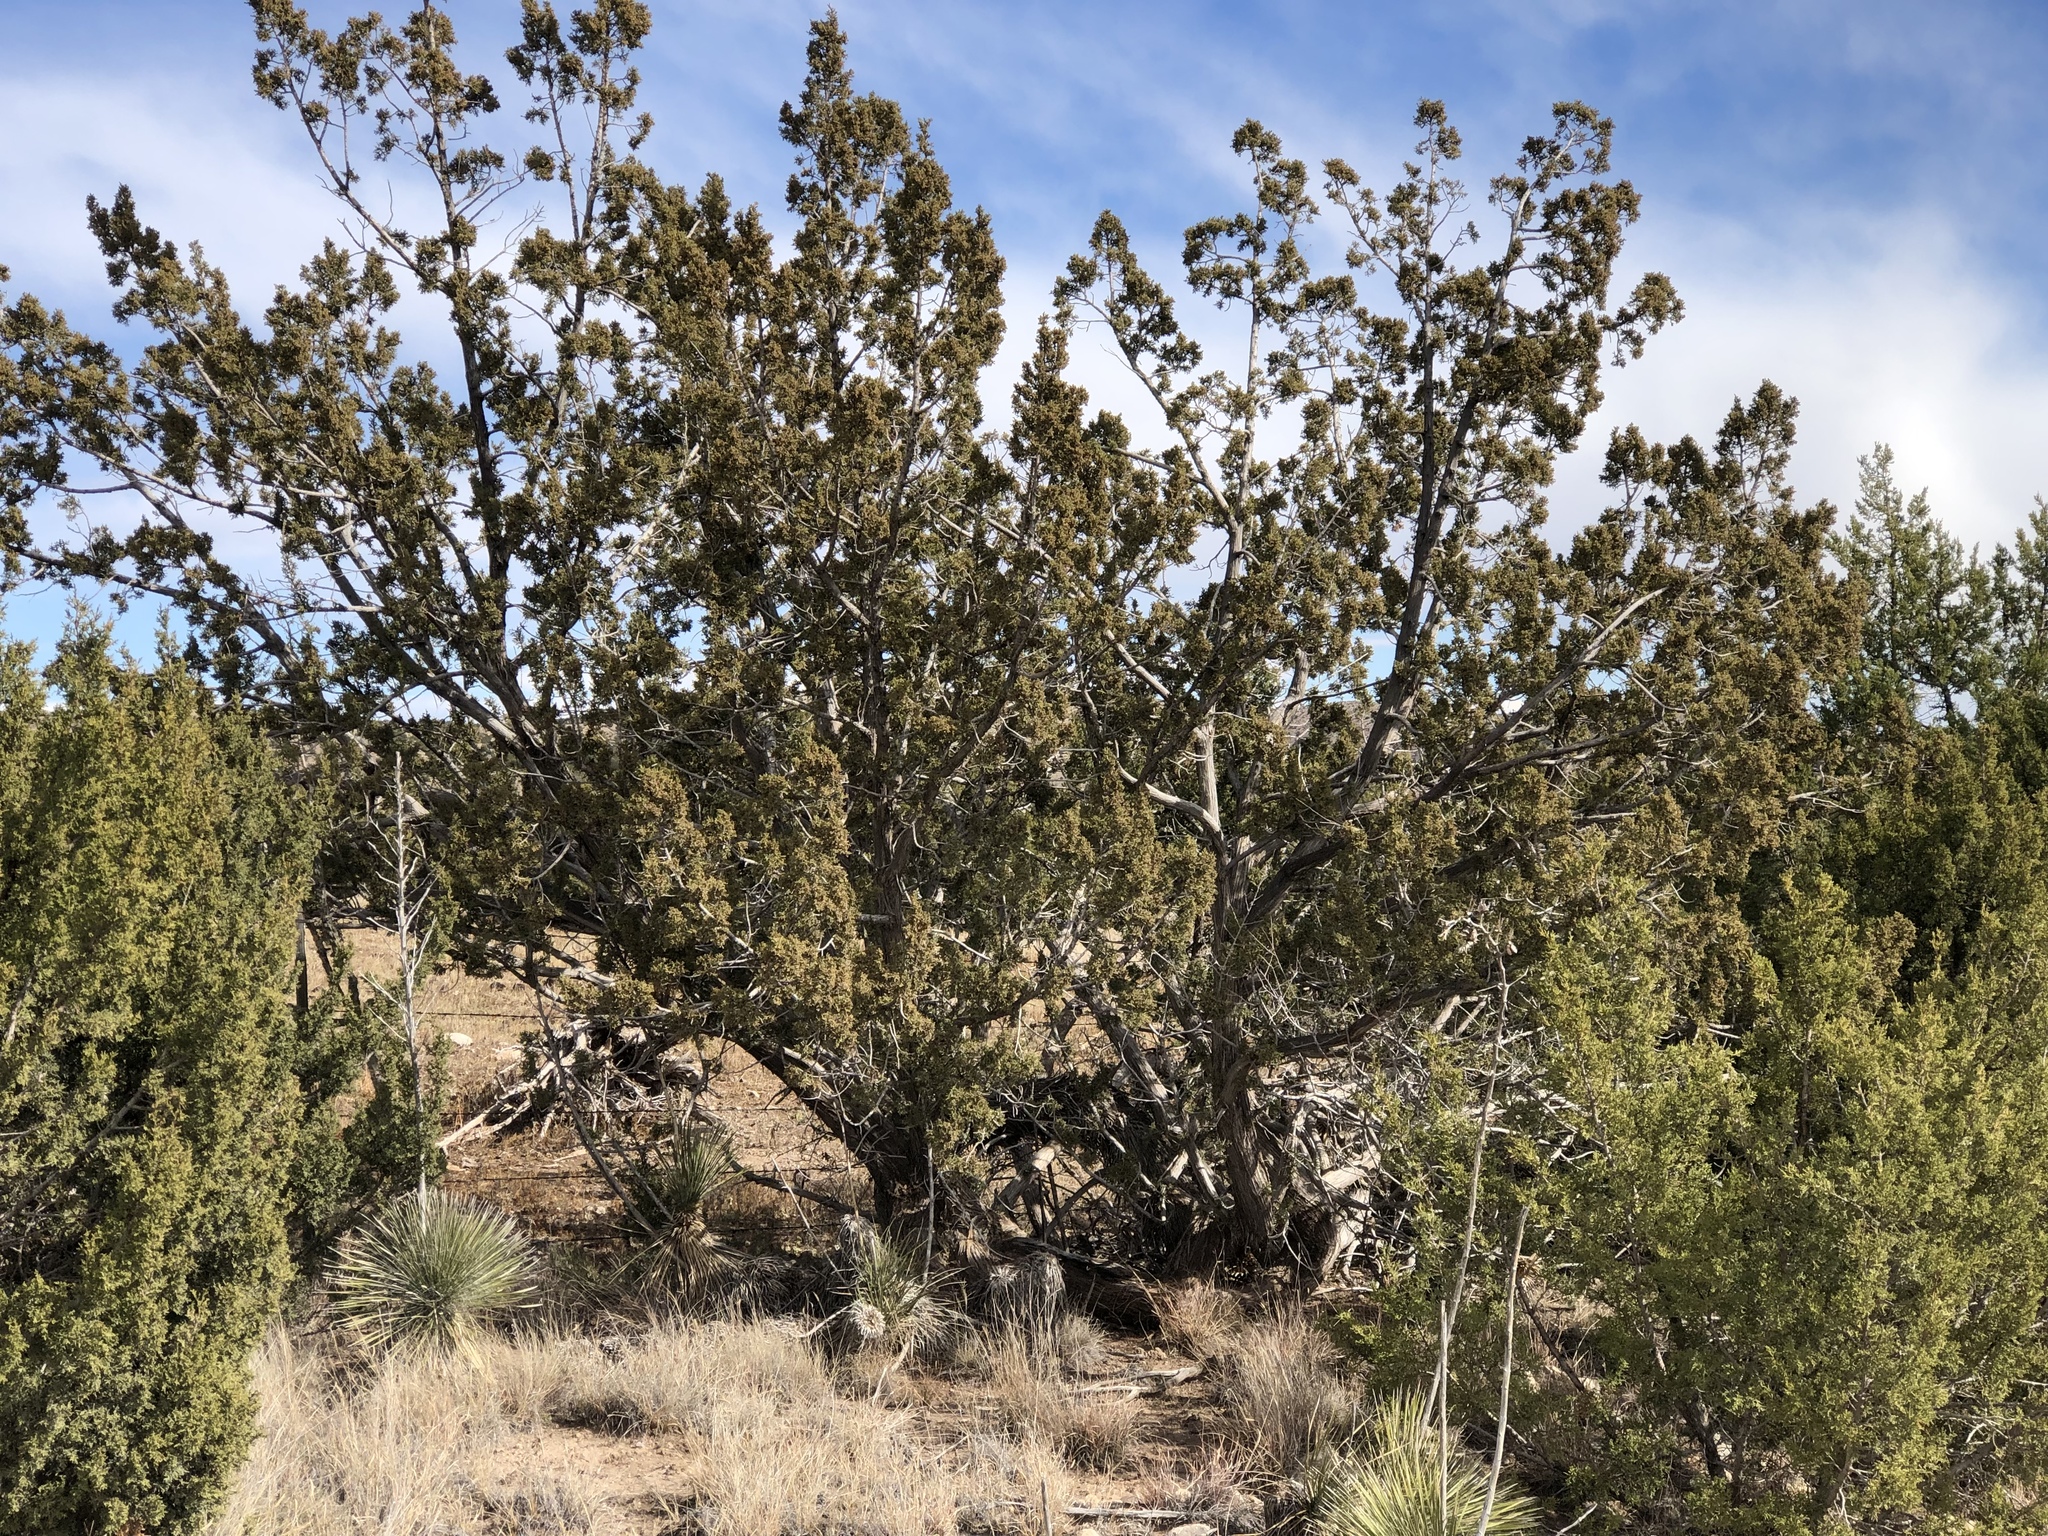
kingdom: Plantae
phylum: Tracheophyta
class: Pinopsida
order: Pinales
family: Cupressaceae
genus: Juniperus
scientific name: Juniperus monosperma
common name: One-seed juniper
